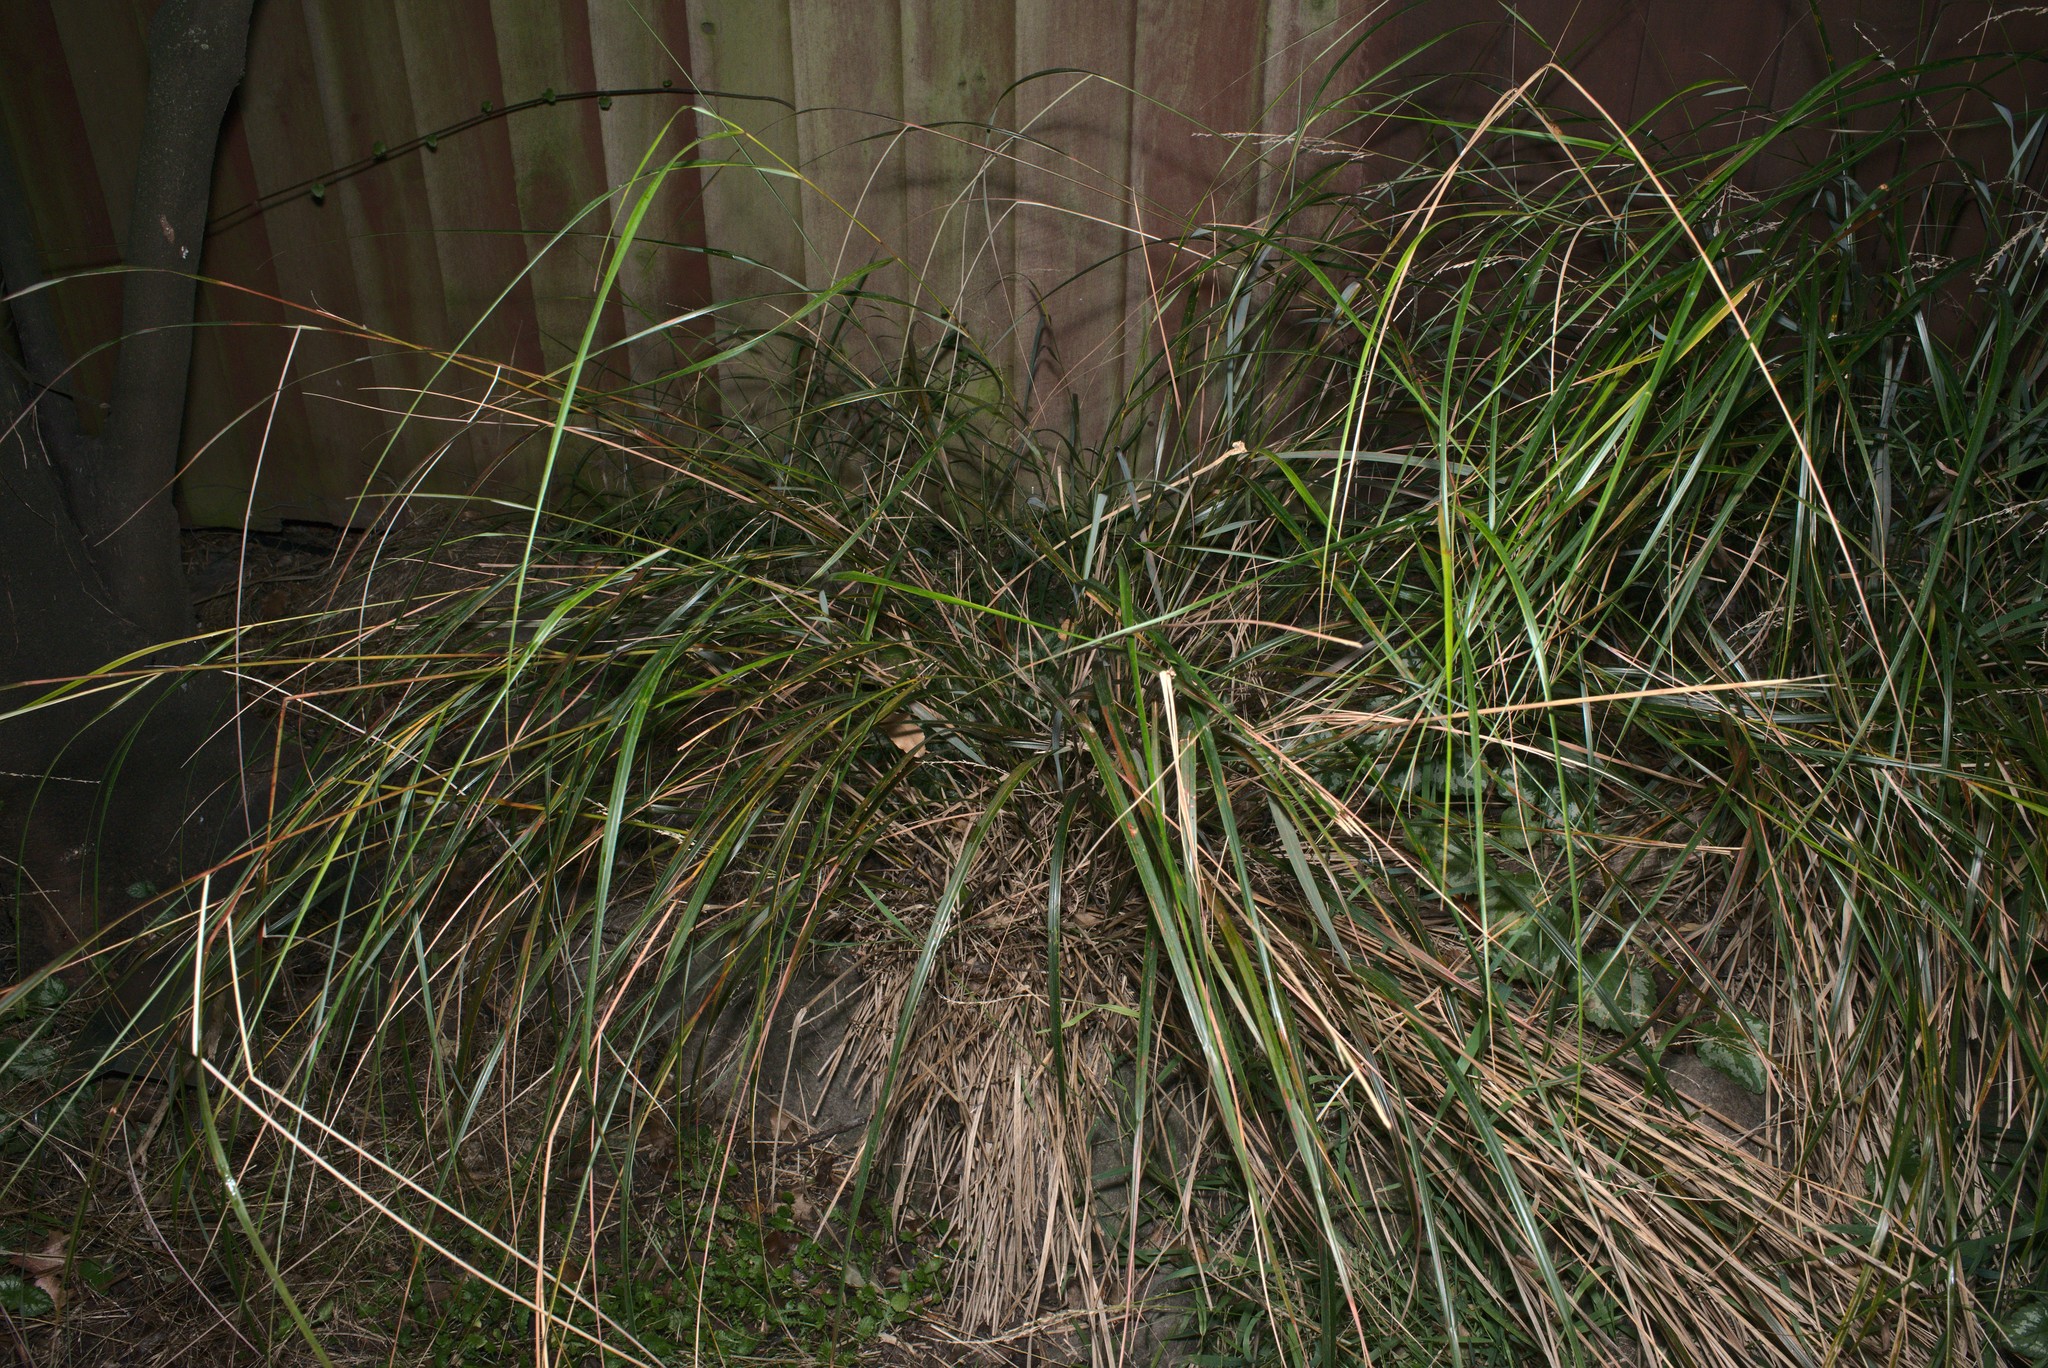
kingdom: Plantae
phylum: Tracheophyta
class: Liliopsida
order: Poales
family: Poaceae
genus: Anemanthele
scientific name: Anemanthele lessoniana
